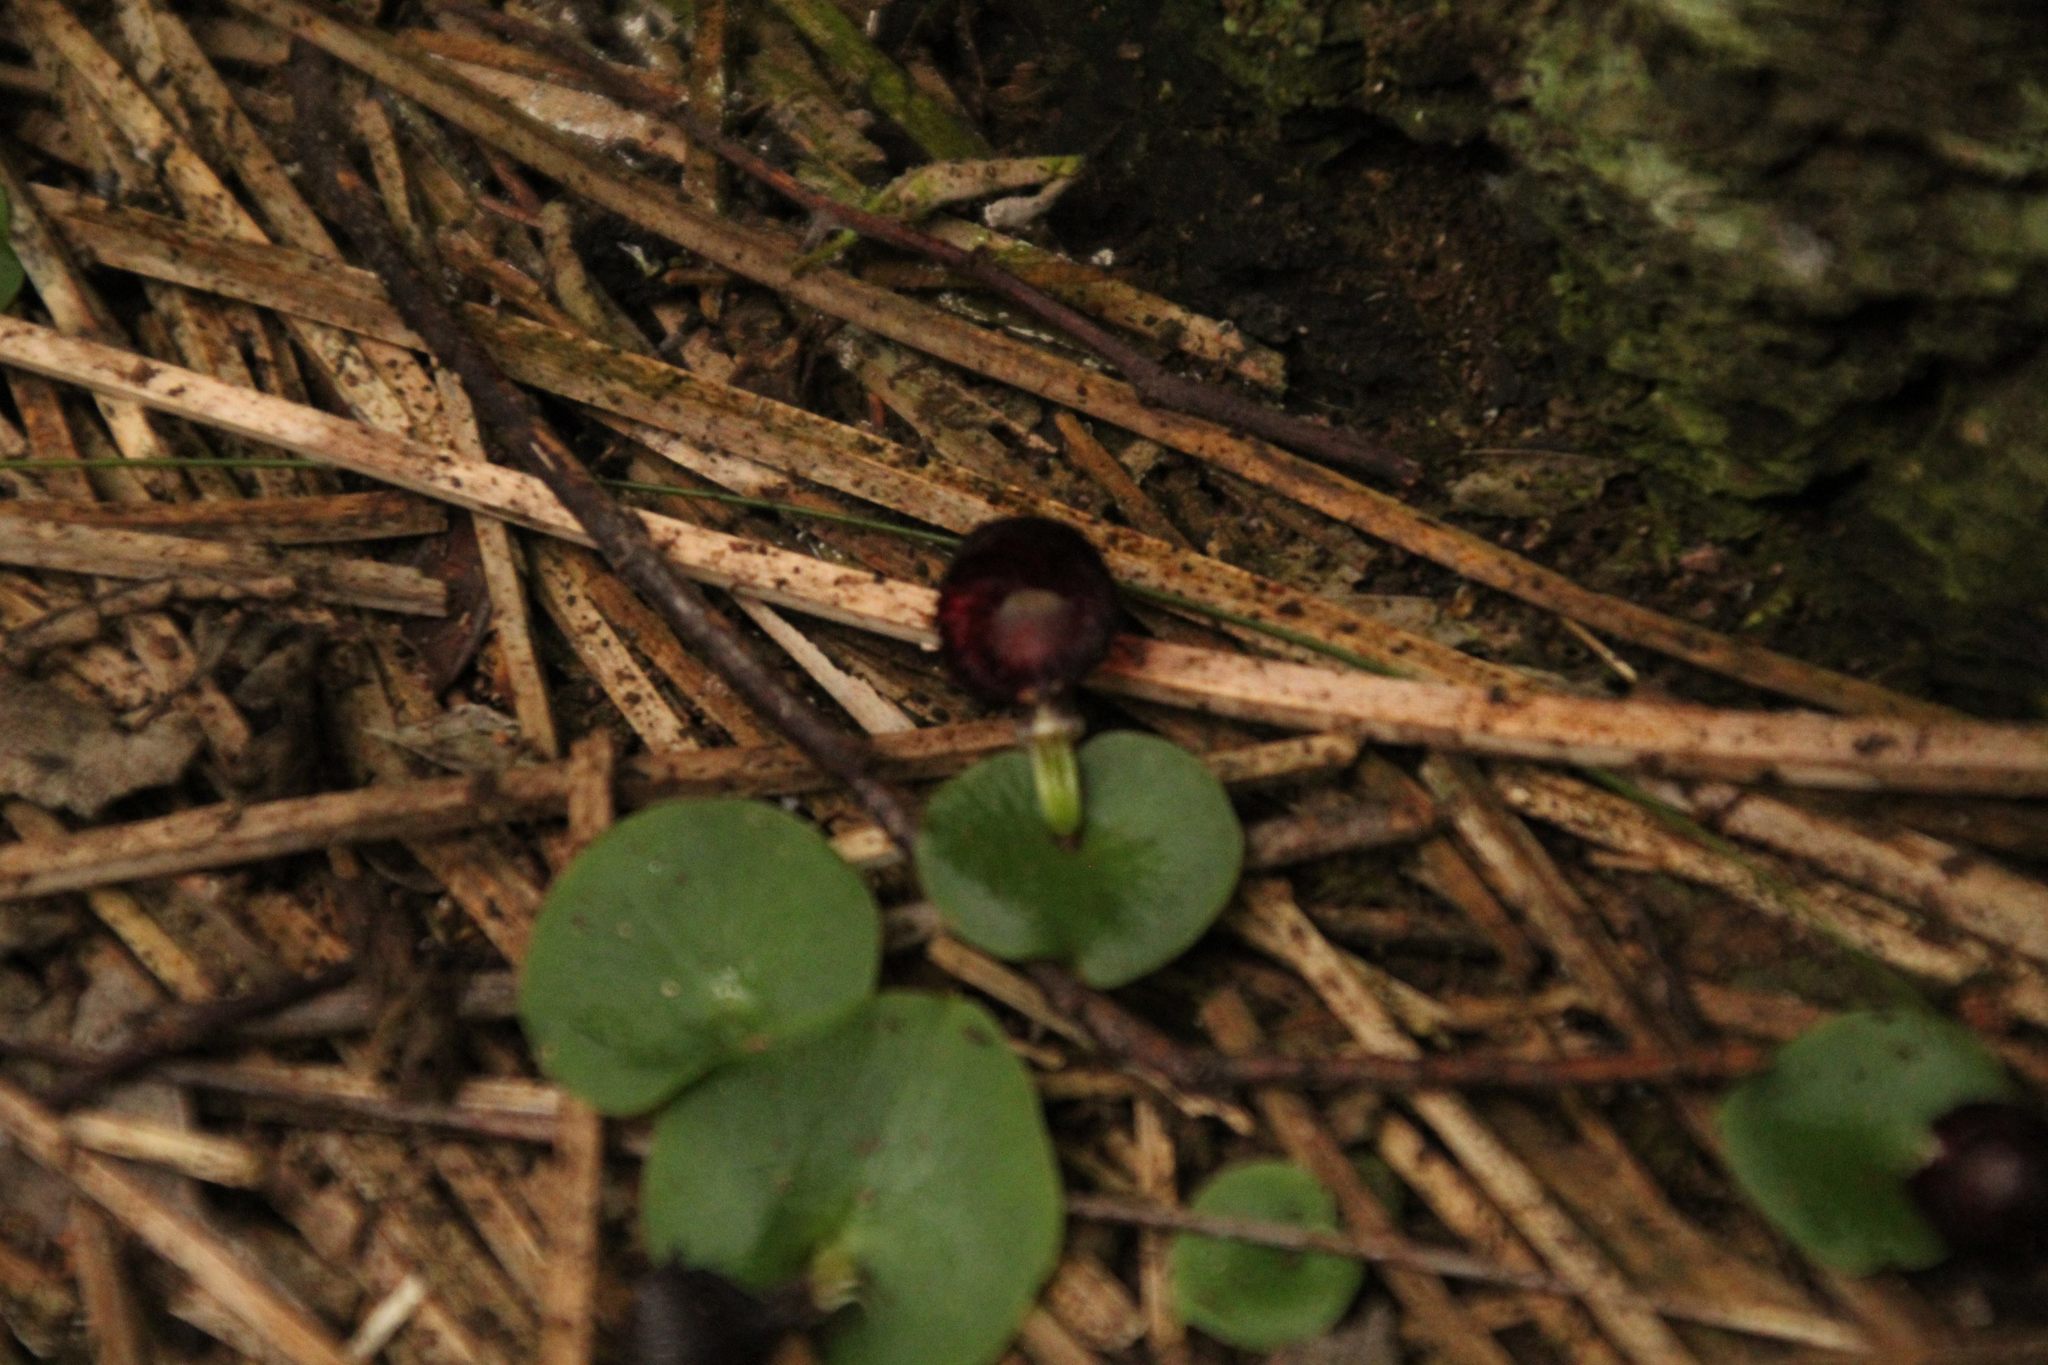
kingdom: Plantae
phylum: Tracheophyta
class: Liliopsida
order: Asparagales
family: Orchidaceae
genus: Corybas
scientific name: Corybas recurvus
